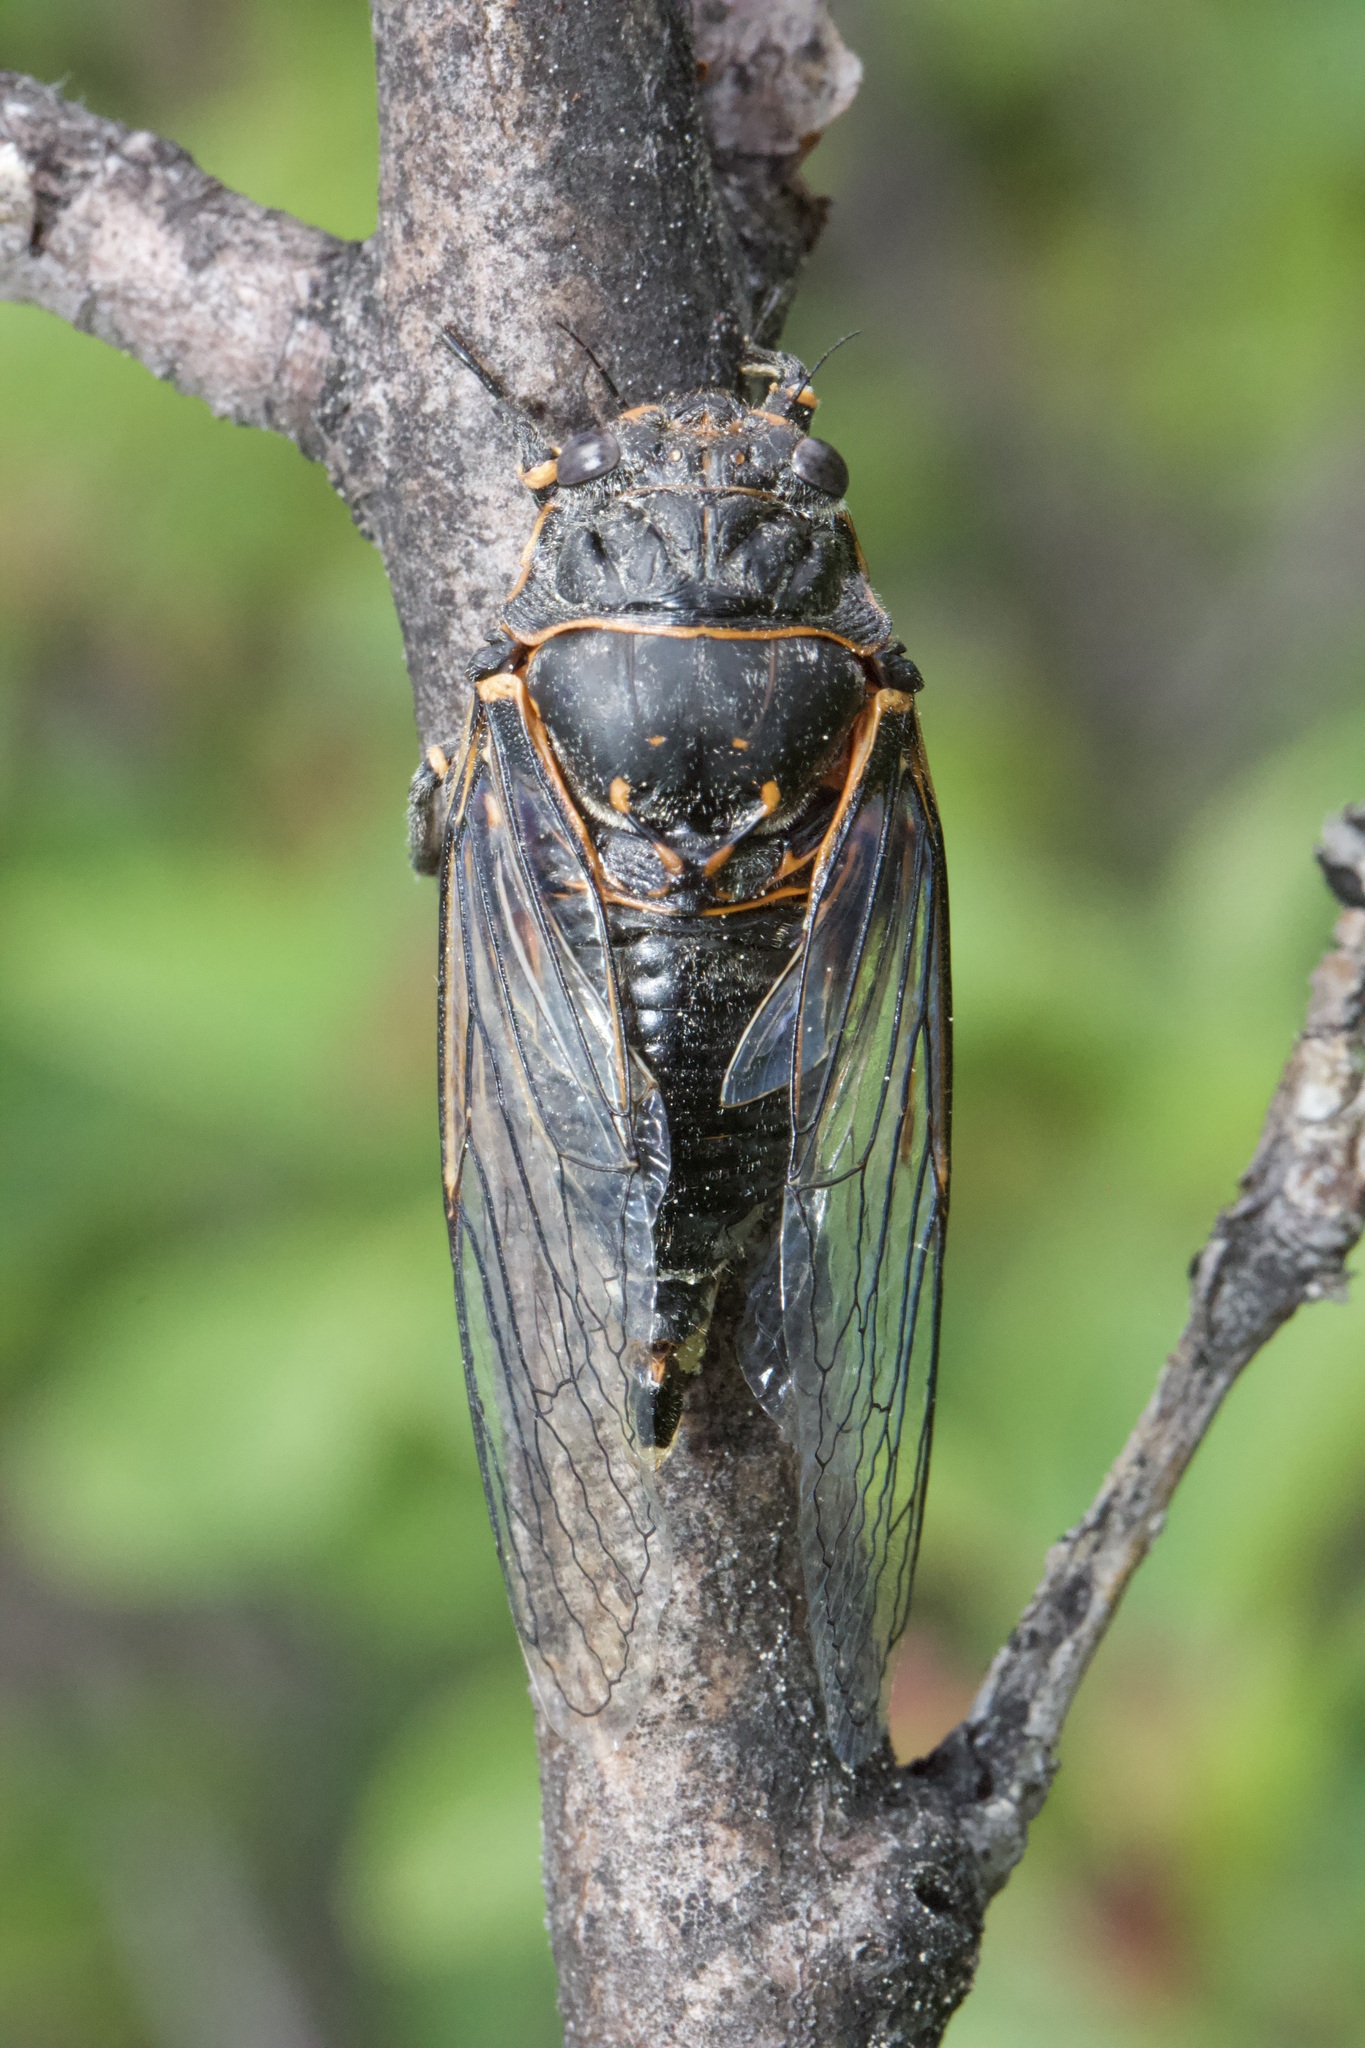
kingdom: Animalia
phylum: Arthropoda
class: Insecta
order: Hemiptera
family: Cicadidae
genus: Okanagana
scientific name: Okanagana occidentalis
